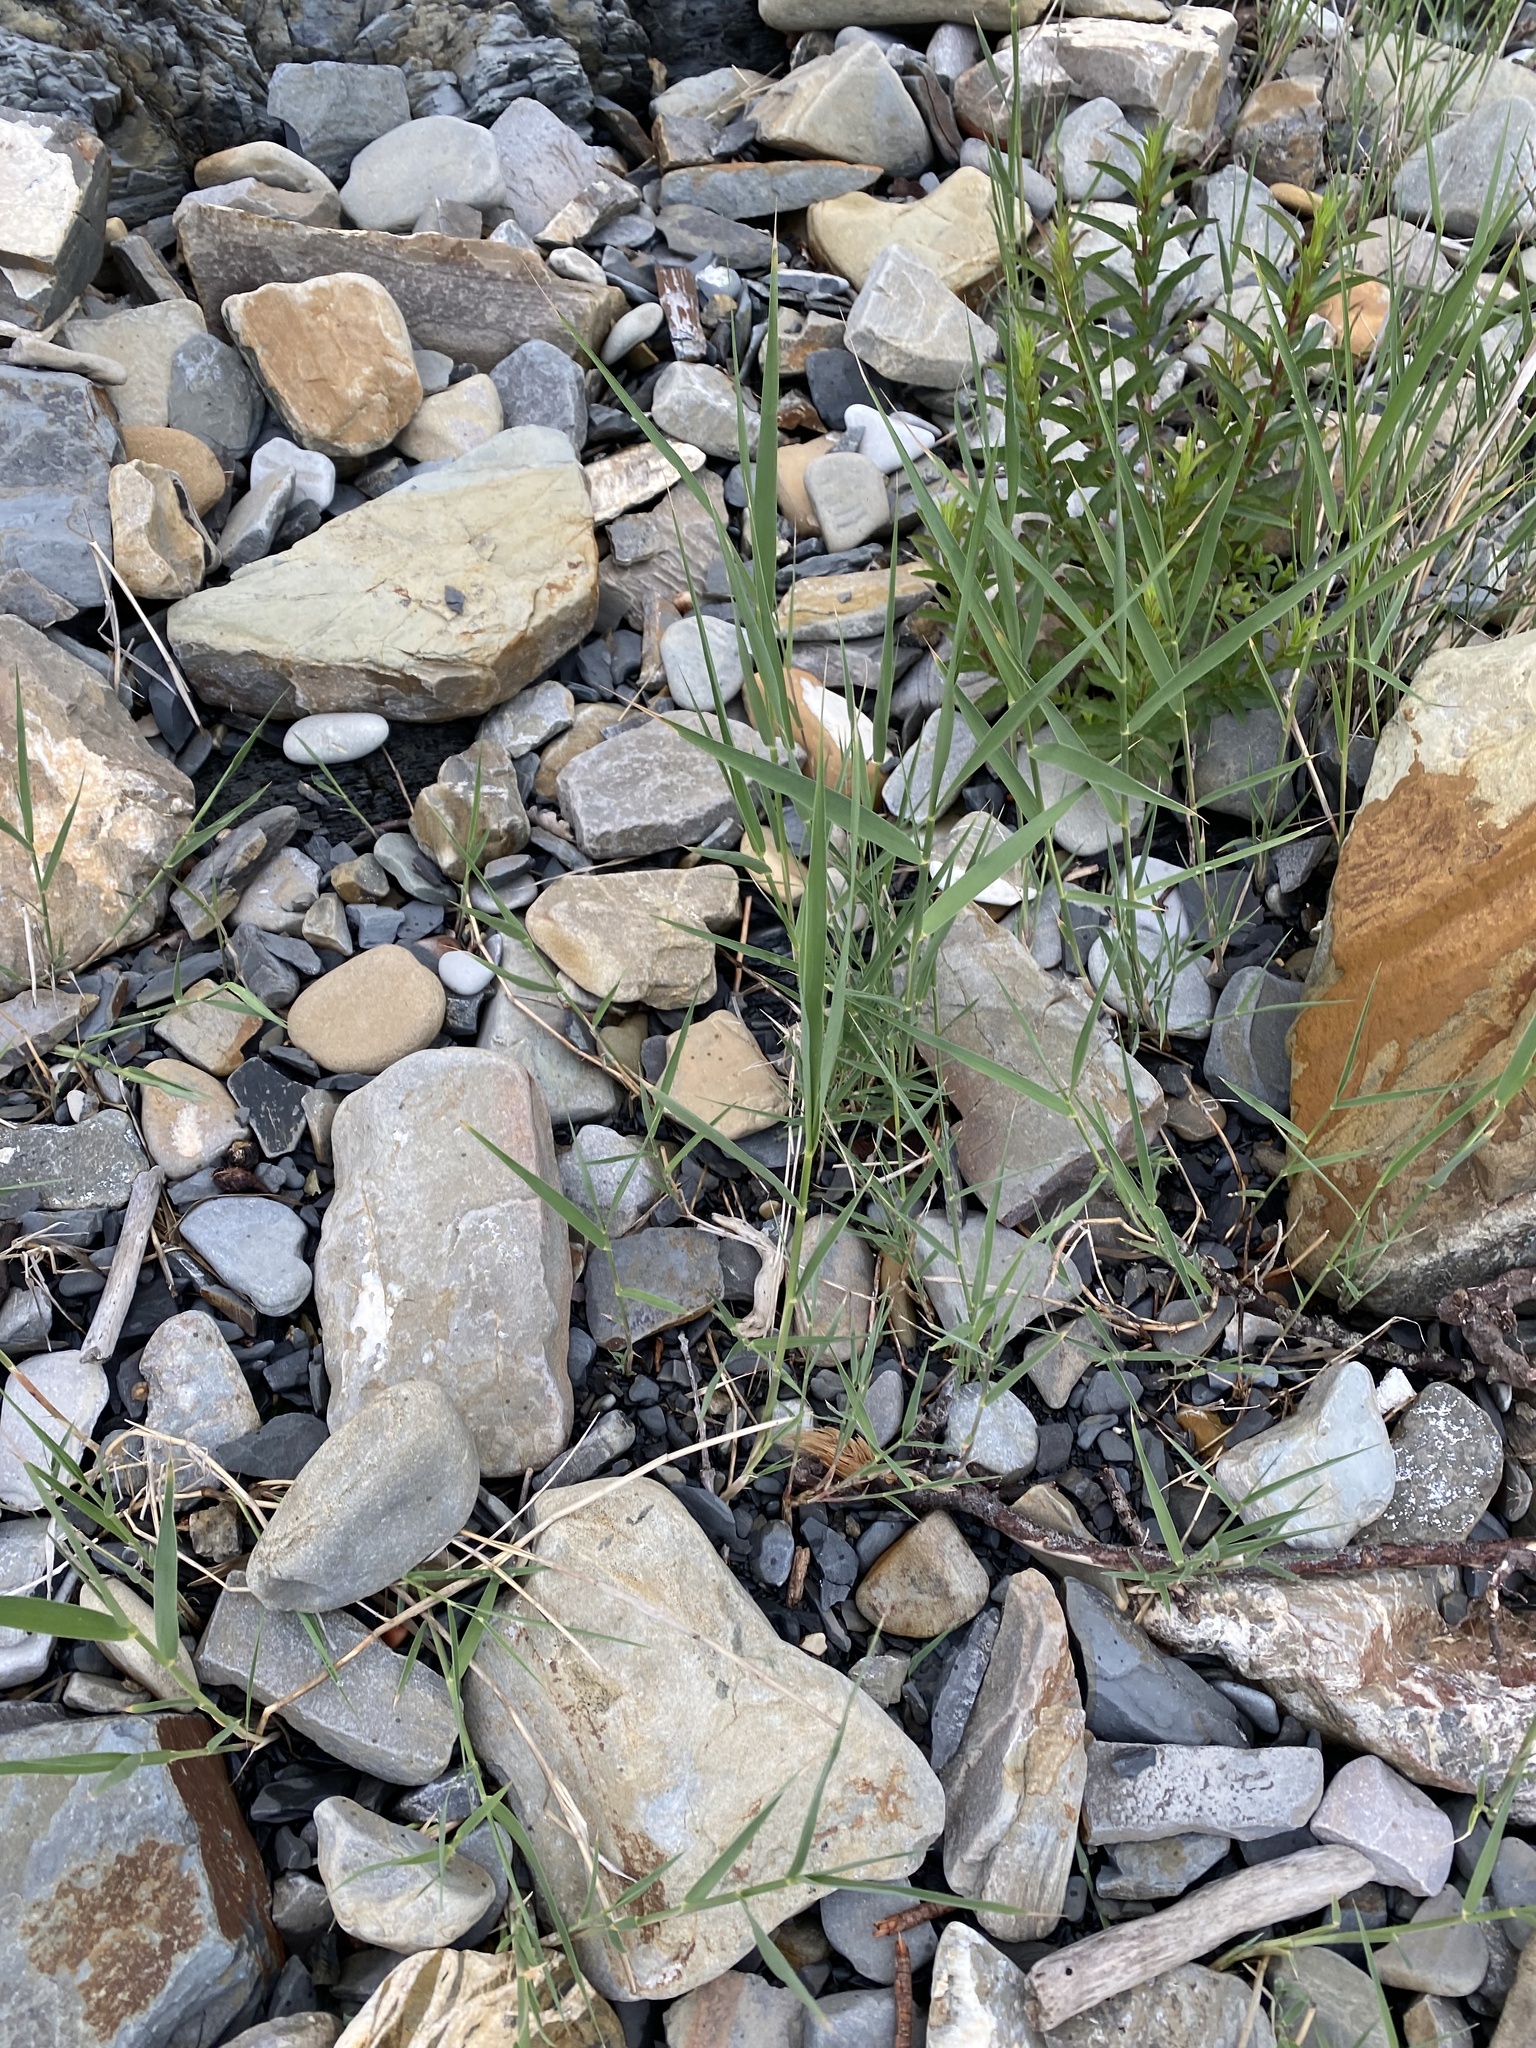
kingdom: Plantae
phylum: Tracheophyta
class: Liliopsida
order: Poales
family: Poaceae
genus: Phragmites
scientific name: Phragmites australis
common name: Common reed
